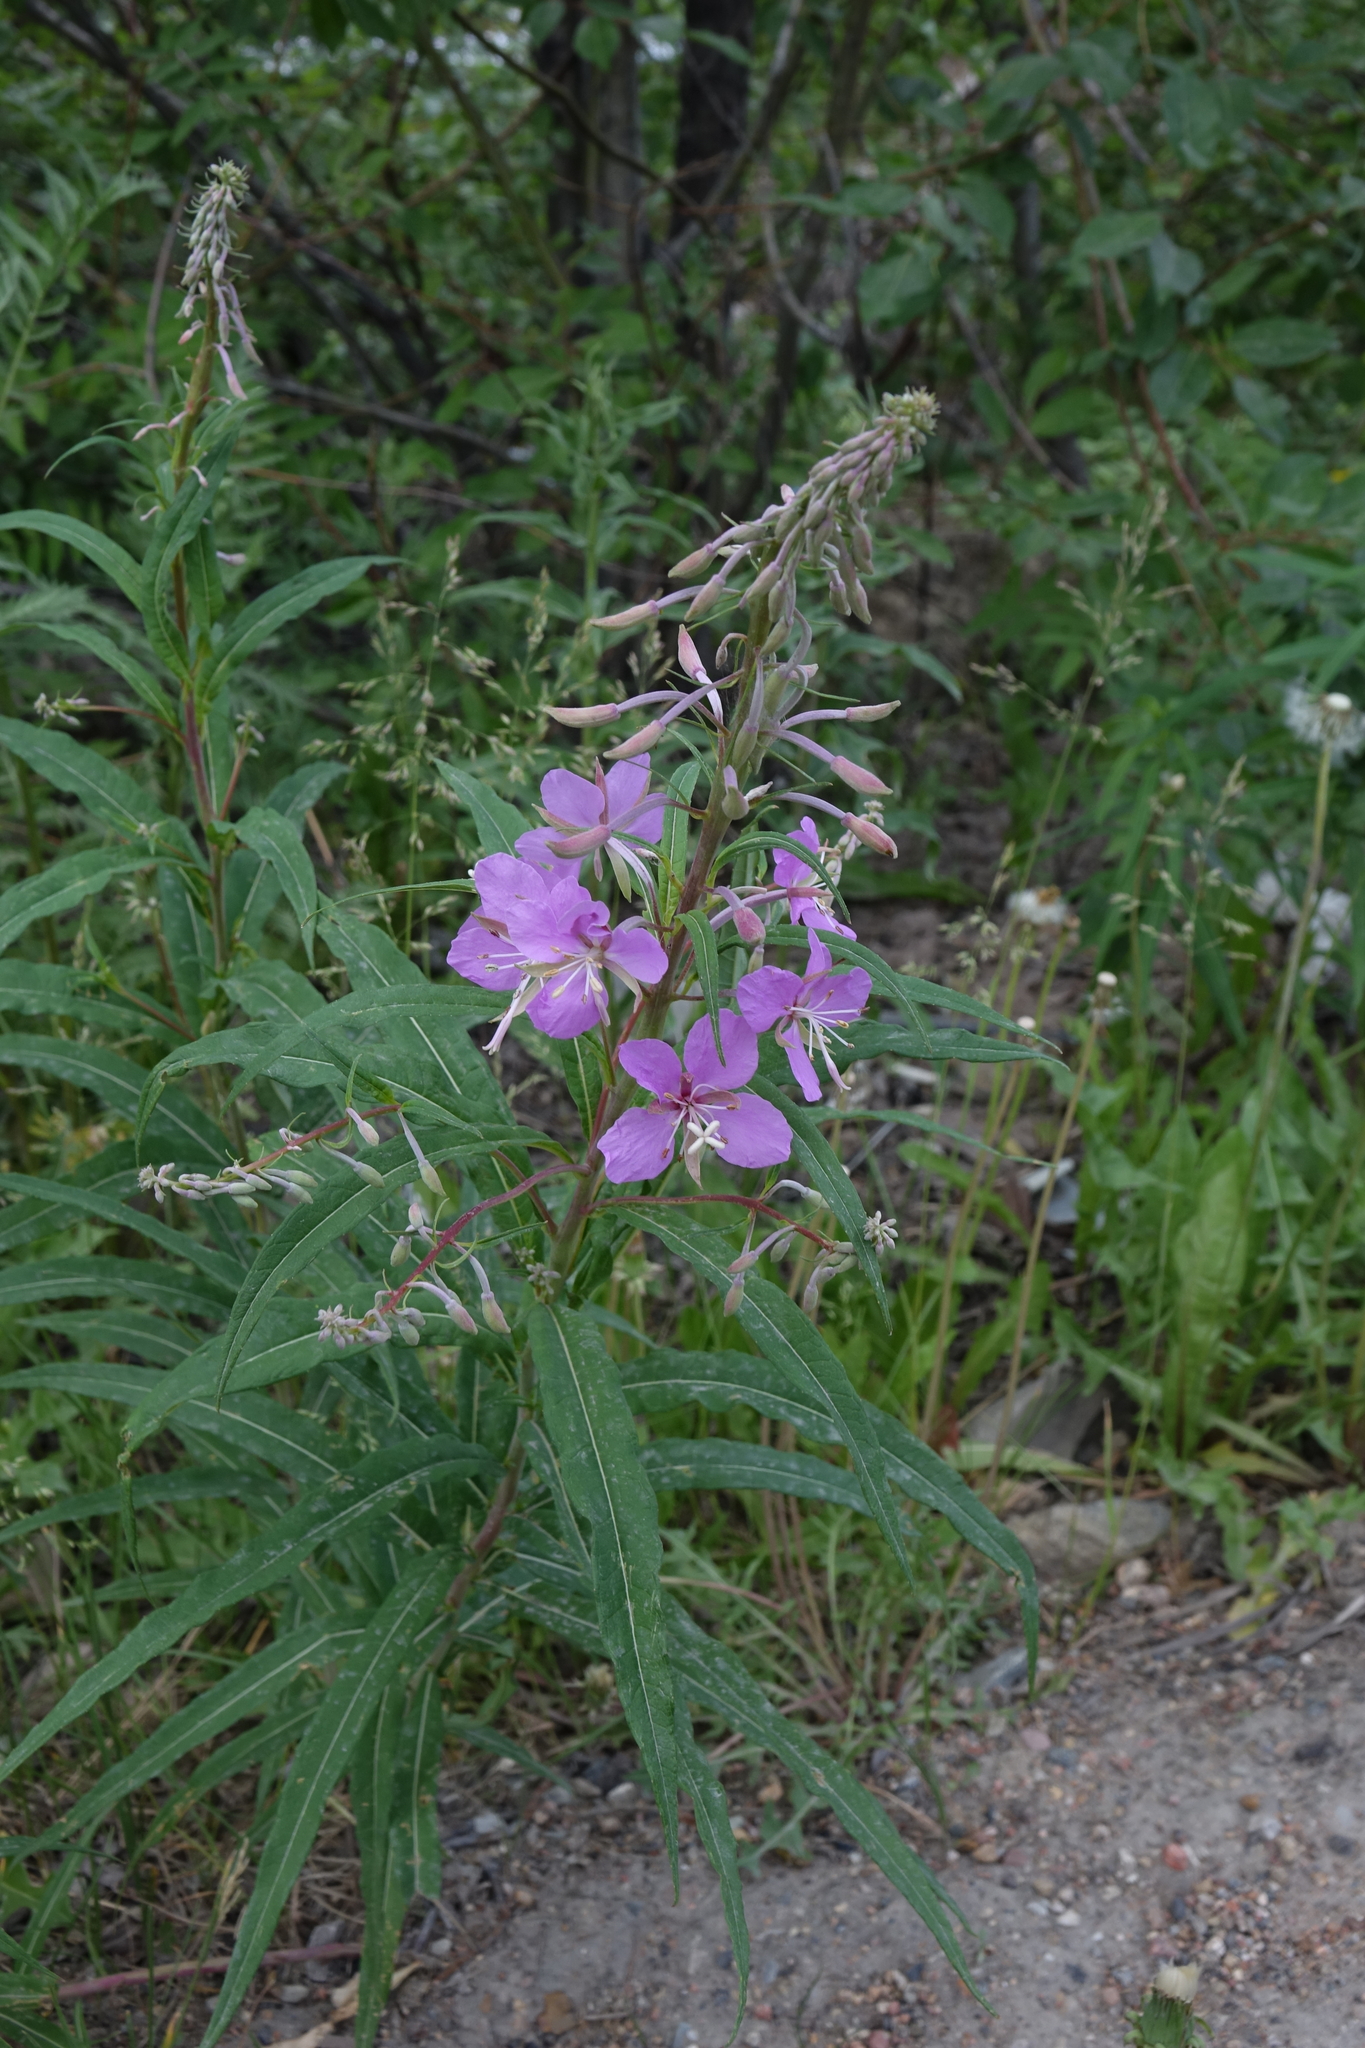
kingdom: Plantae
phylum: Tracheophyta
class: Magnoliopsida
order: Myrtales
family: Onagraceae
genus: Chamaenerion
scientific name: Chamaenerion angustifolium
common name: Fireweed
